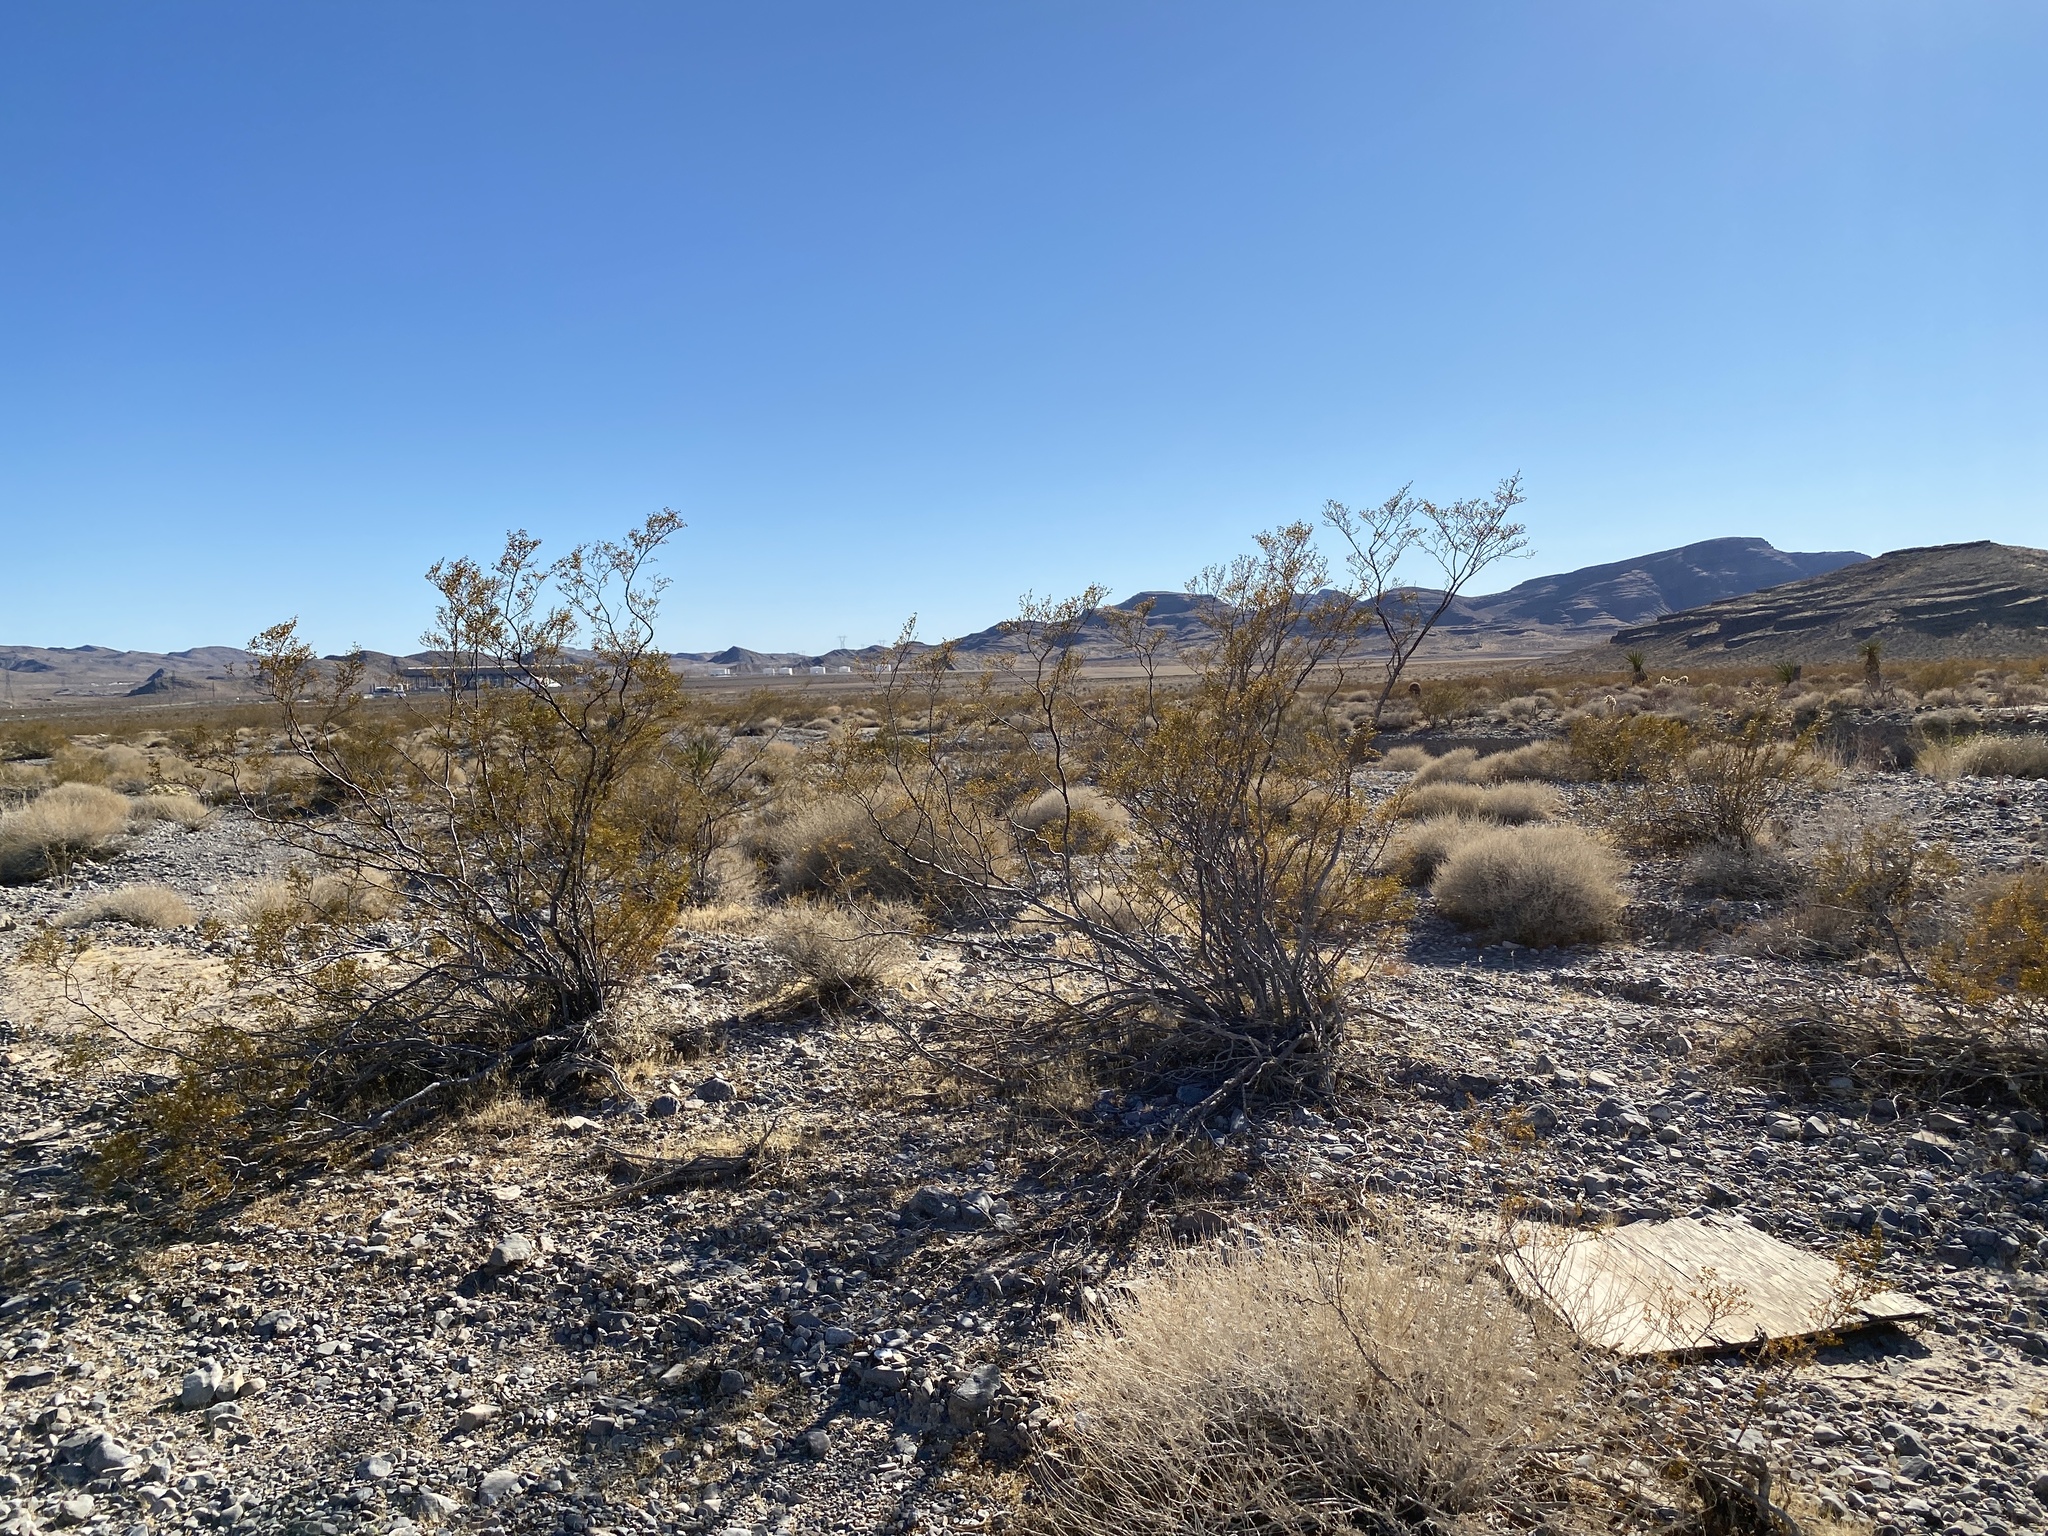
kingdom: Plantae
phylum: Tracheophyta
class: Magnoliopsida
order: Zygophyllales
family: Zygophyllaceae
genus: Larrea
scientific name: Larrea tridentata
